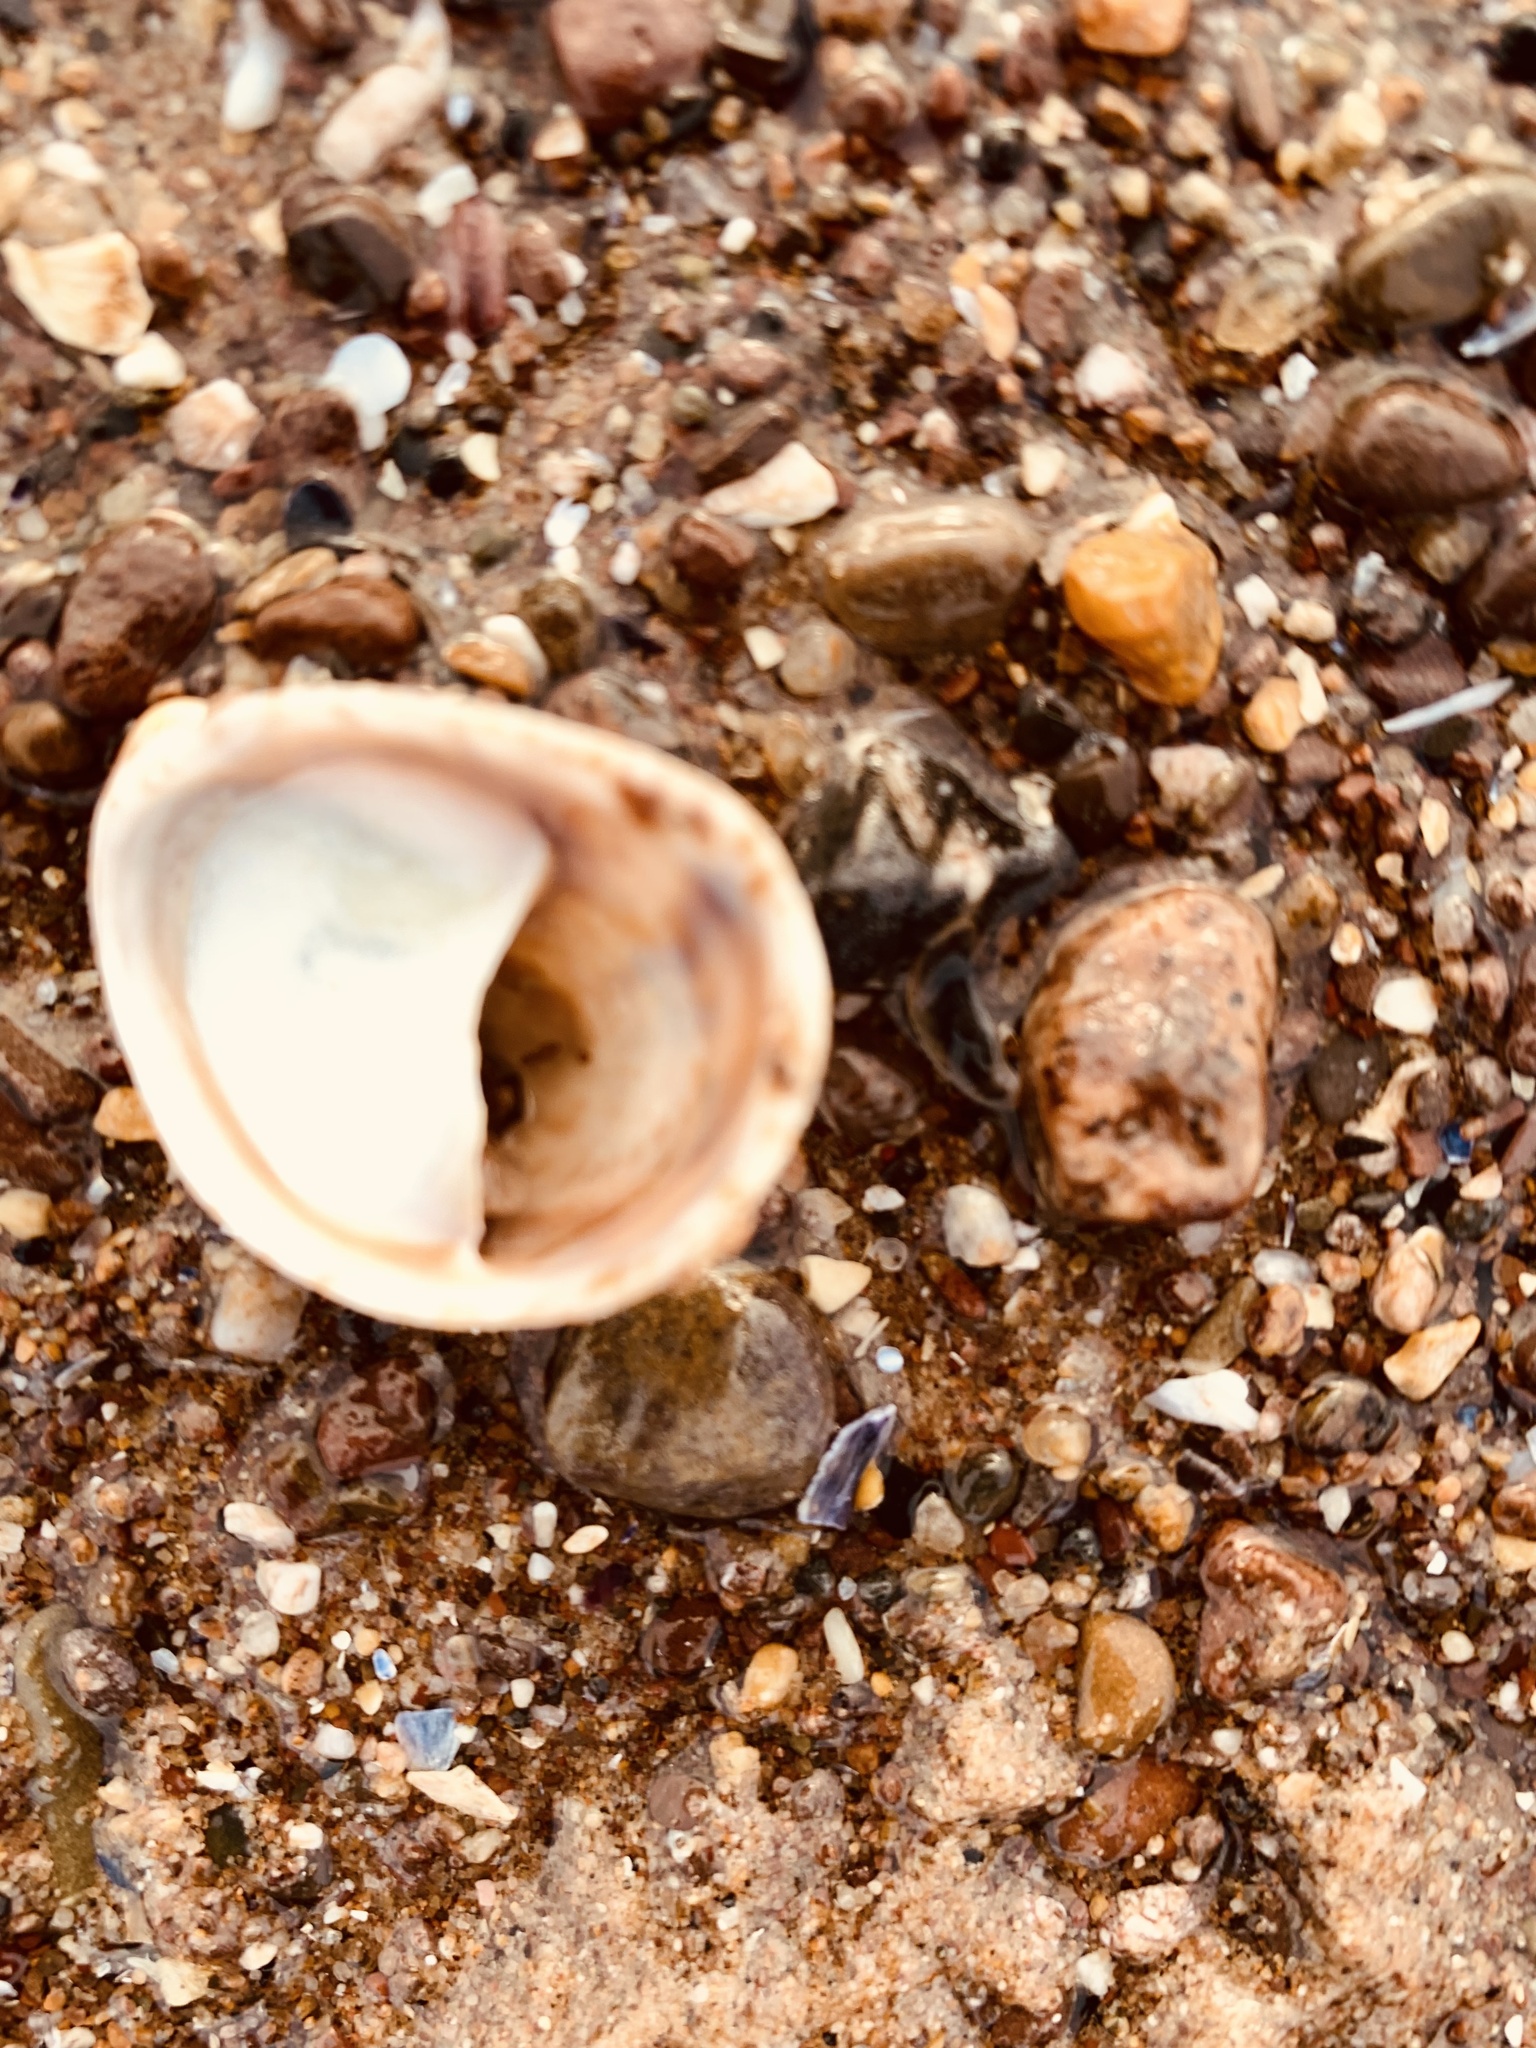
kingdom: Animalia
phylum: Mollusca
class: Gastropoda
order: Littorinimorpha
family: Calyptraeidae
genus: Crepidula
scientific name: Crepidula fornicata
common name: Slipper limpet
